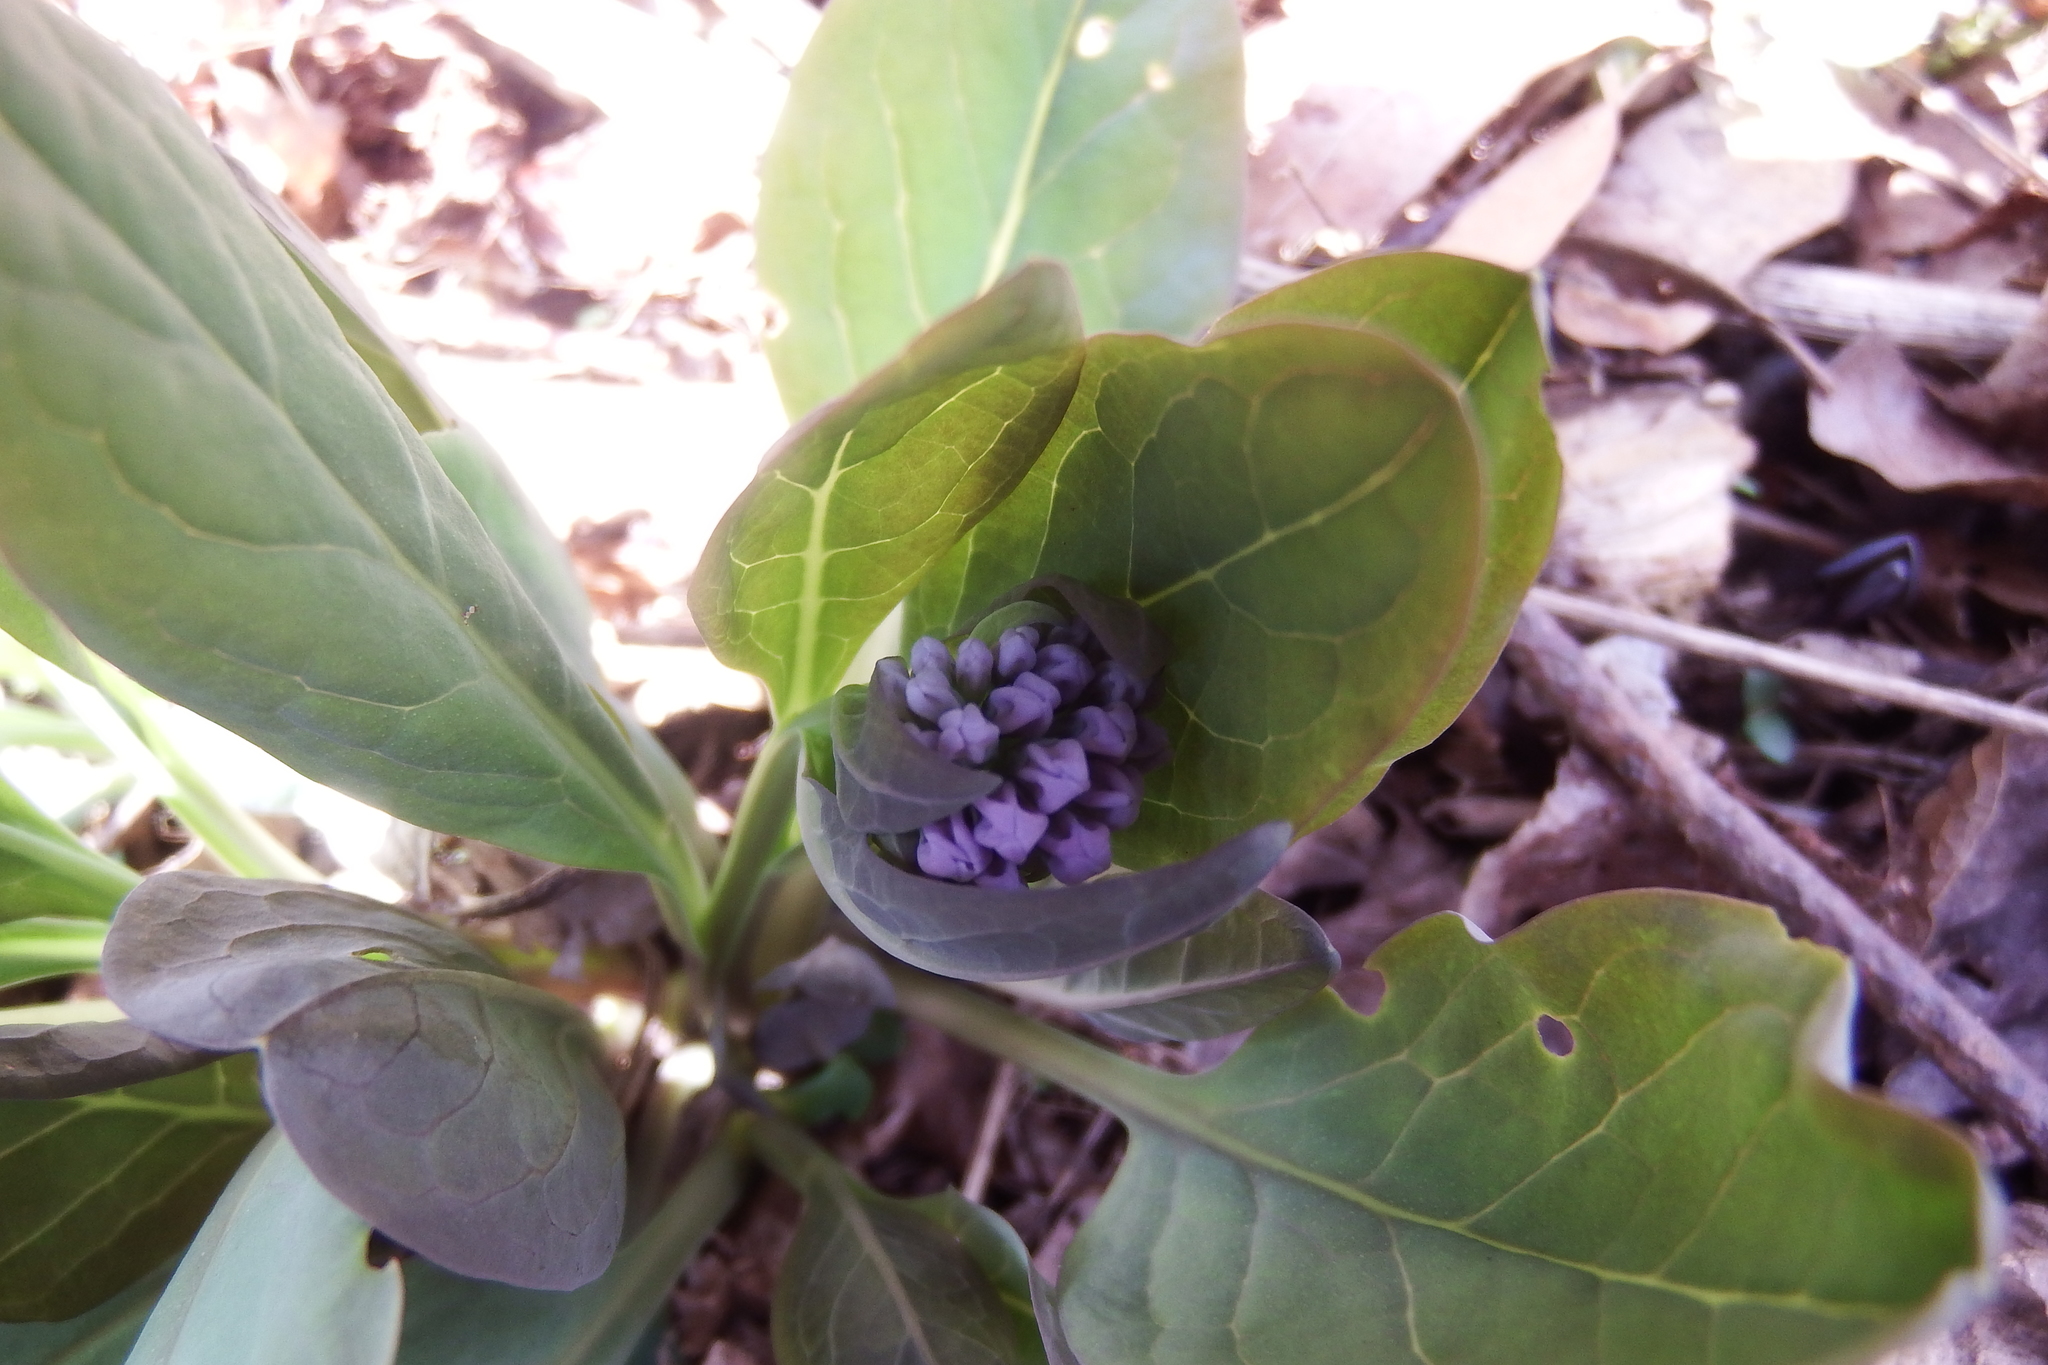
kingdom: Plantae
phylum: Tracheophyta
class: Magnoliopsida
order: Boraginales
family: Boraginaceae
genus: Mertensia
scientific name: Mertensia virginica
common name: Virginia bluebells
